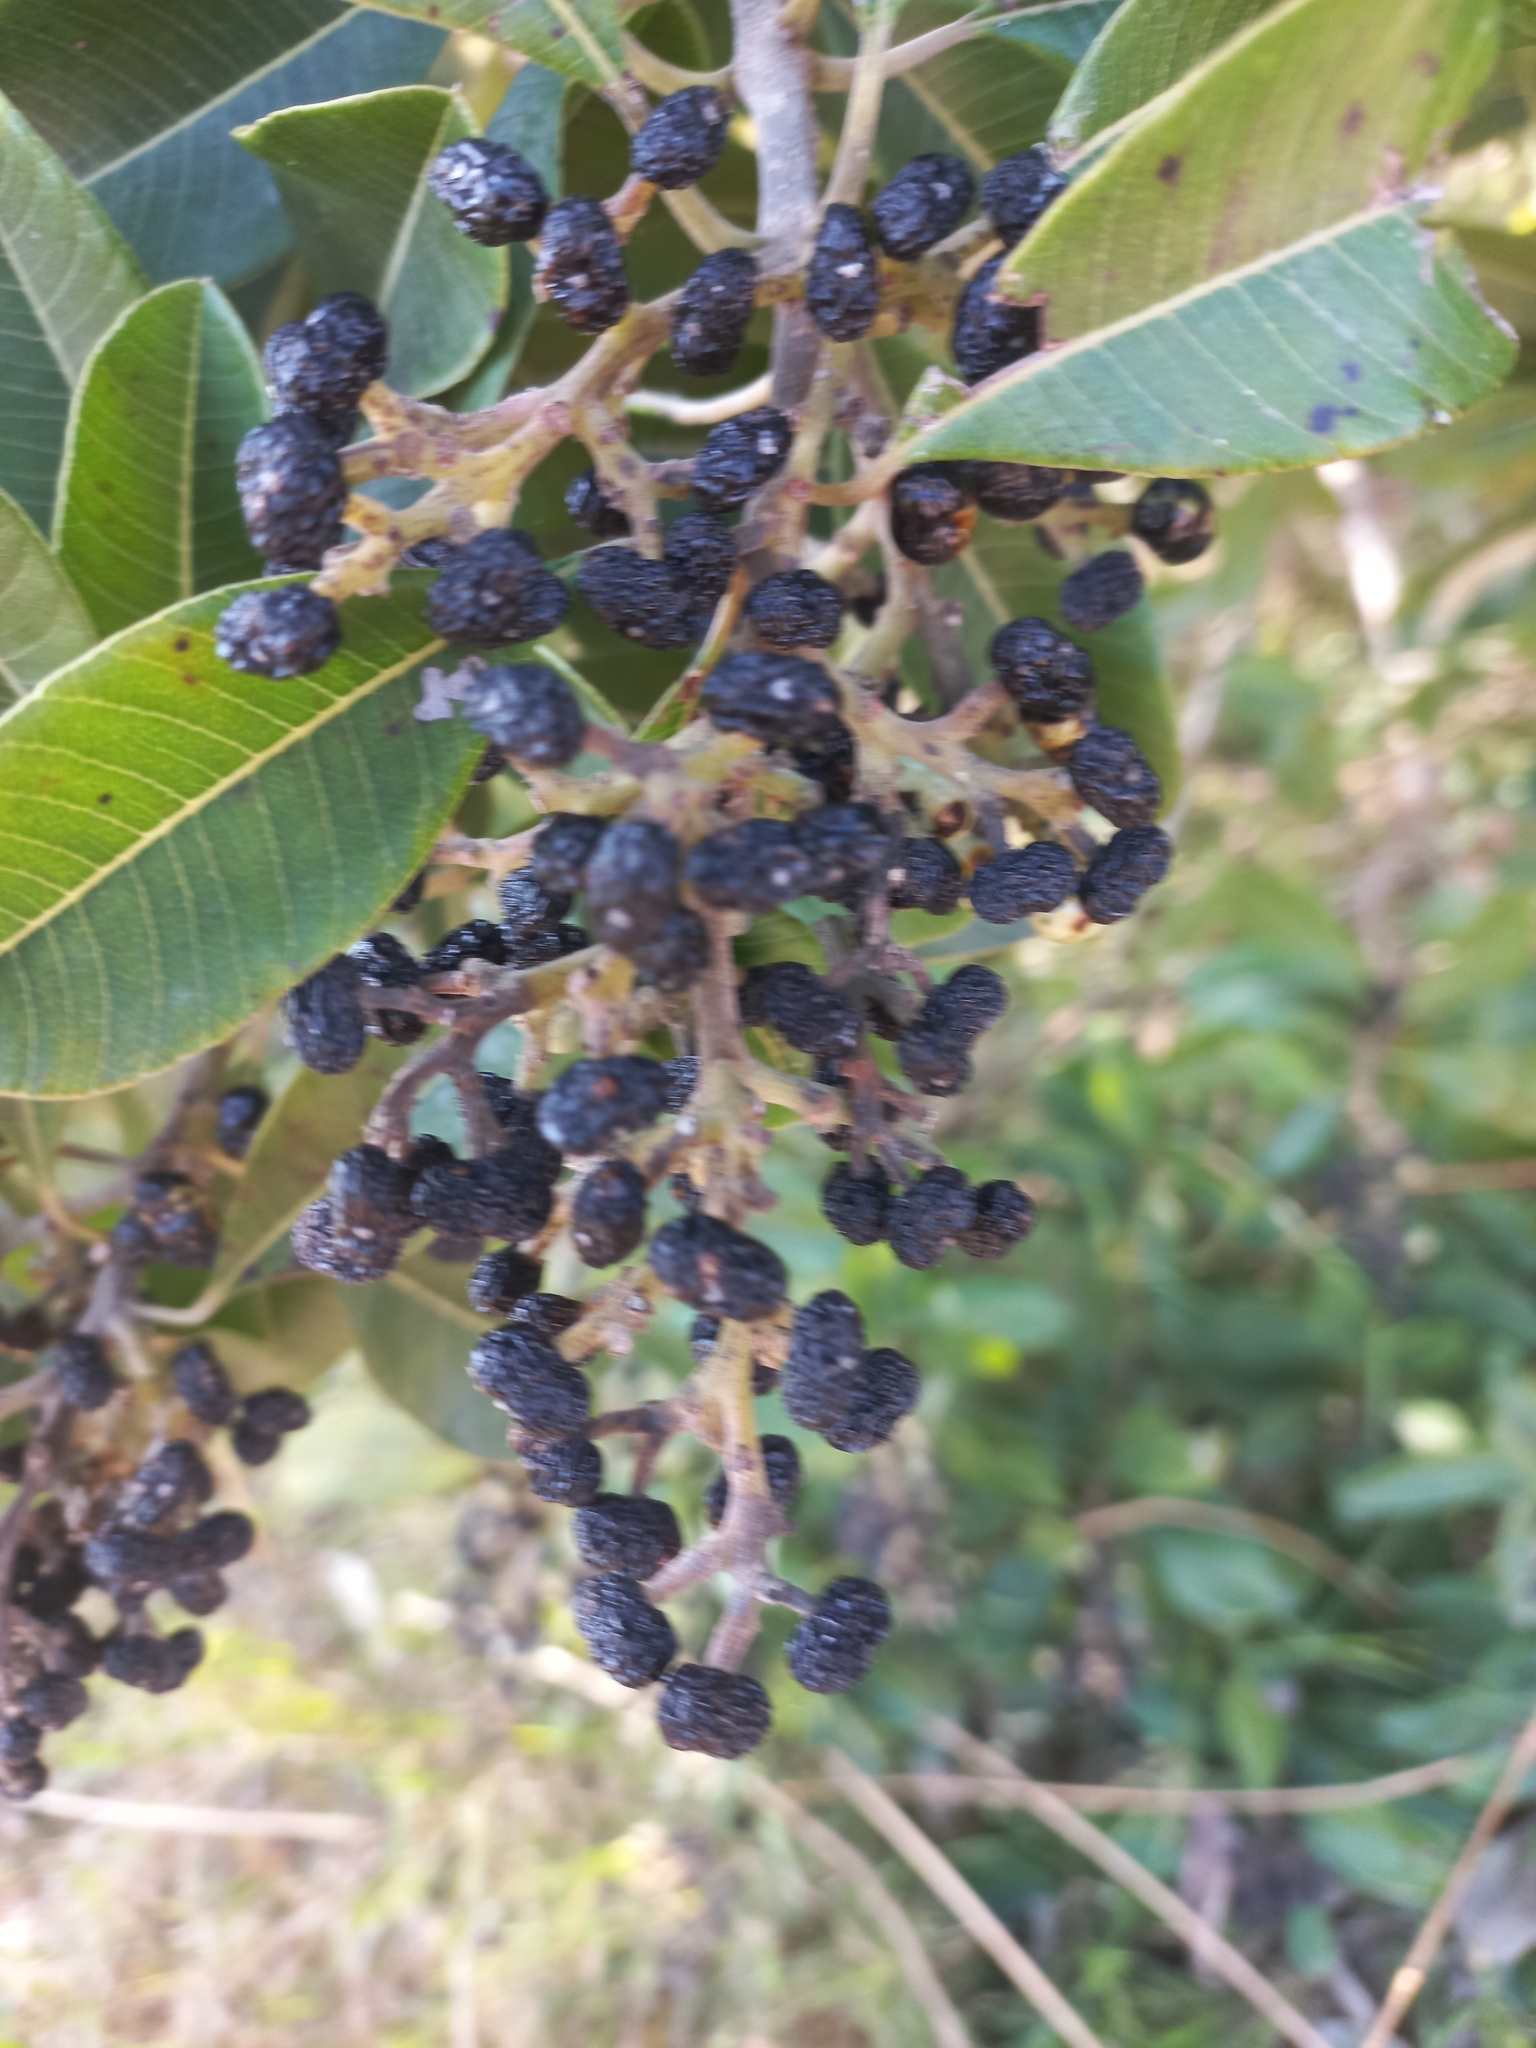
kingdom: Plantae
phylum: Tracheophyta
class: Magnoliopsida
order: Sapindales
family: Anacardiaceae
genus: Ozoroa
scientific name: Ozoroa obovata
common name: Broad-leaved resin tree
